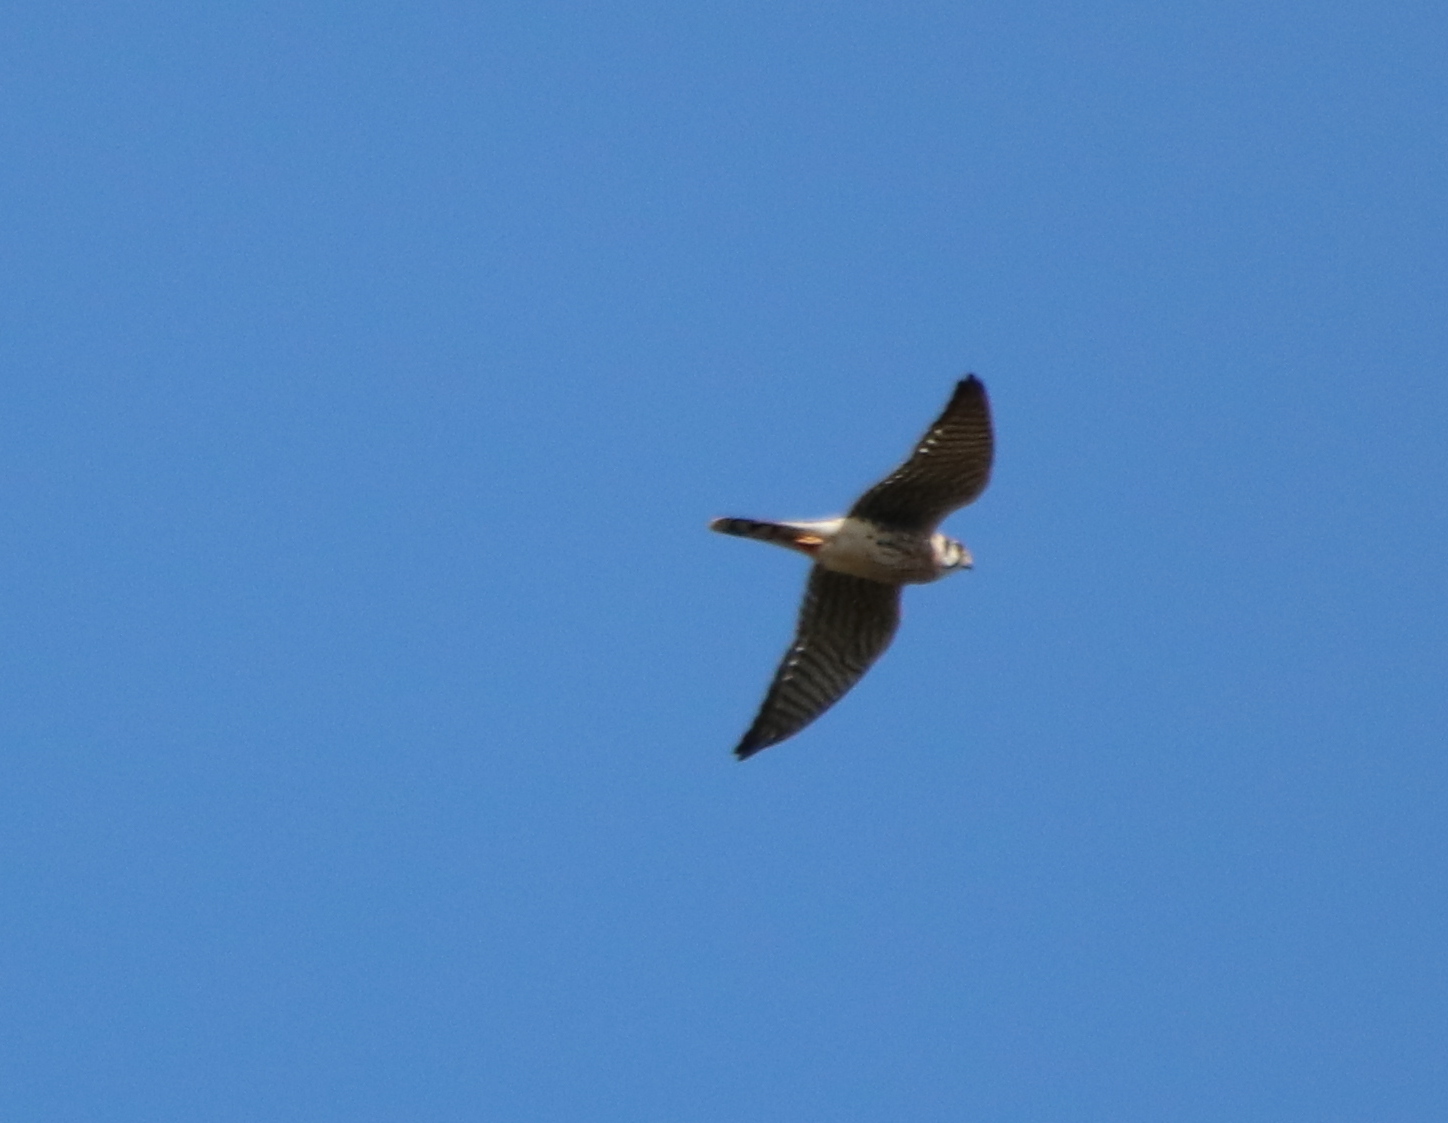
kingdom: Animalia
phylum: Chordata
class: Aves
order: Falconiformes
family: Falconidae
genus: Falco
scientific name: Falco sparverius
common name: American kestrel
